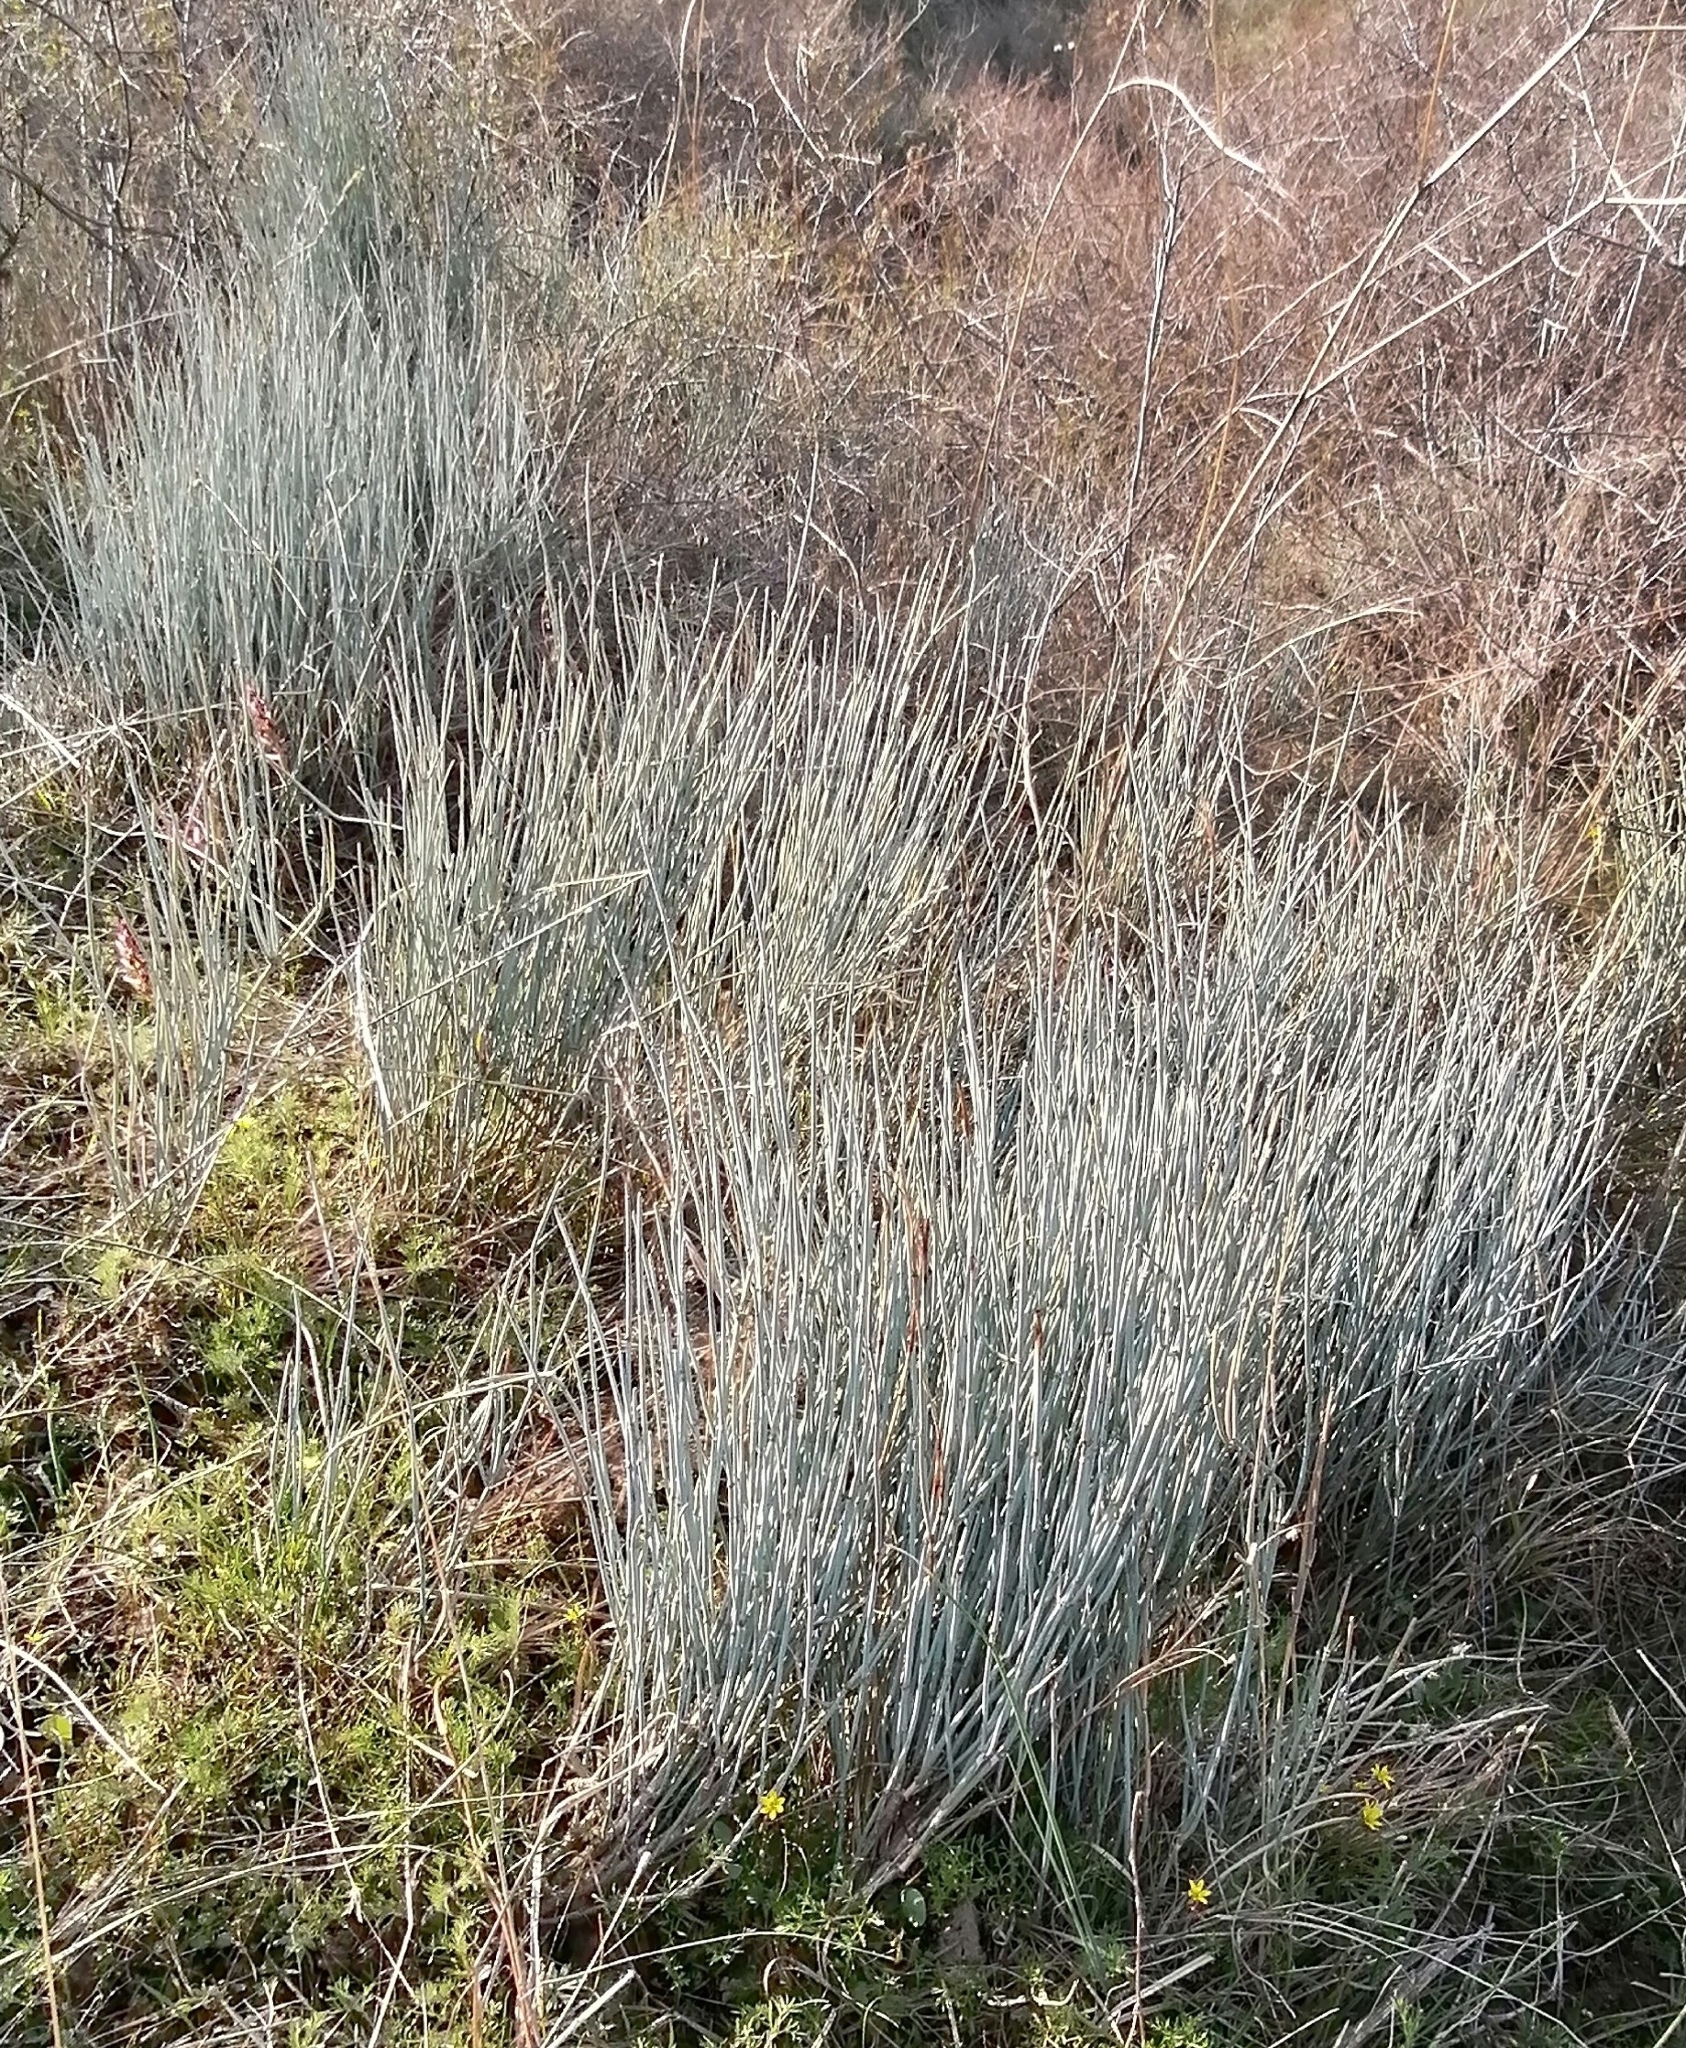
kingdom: Plantae
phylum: Tracheophyta
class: Gnetopsida
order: Ephedrales
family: Ephedraceae
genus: Ephedra
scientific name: Ephedra intermedia
